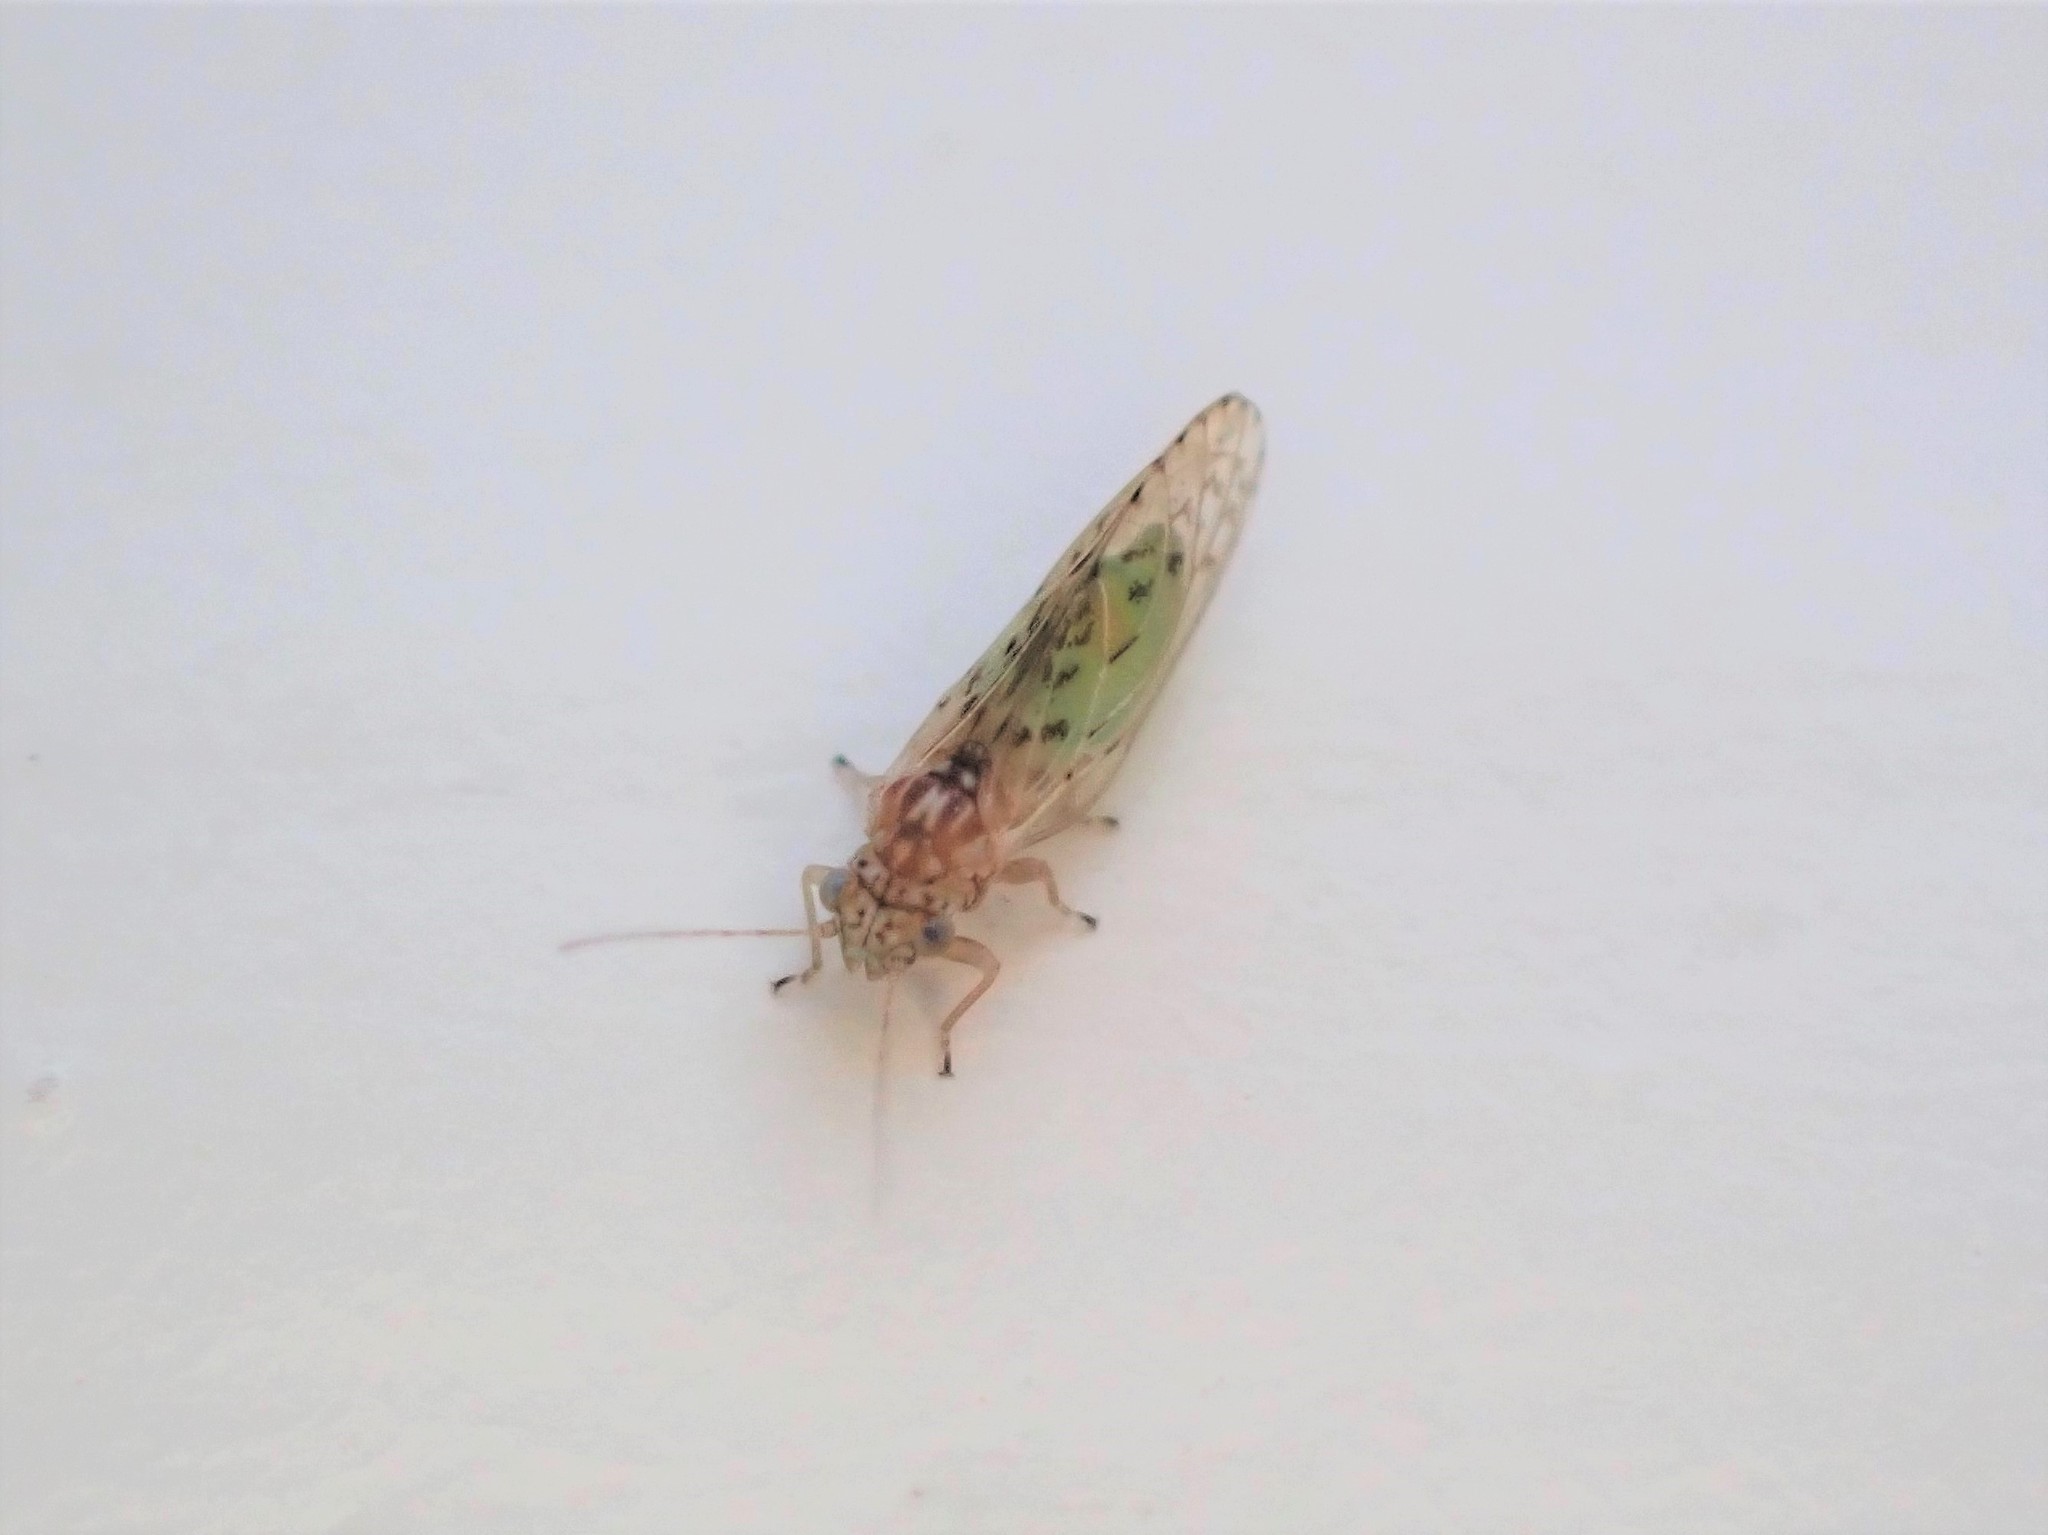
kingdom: Animalia
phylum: Arthropoda
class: Insecta
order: Hemiptera
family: Psyllidae
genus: Acizzia
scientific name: Acizzia dodonaeae
